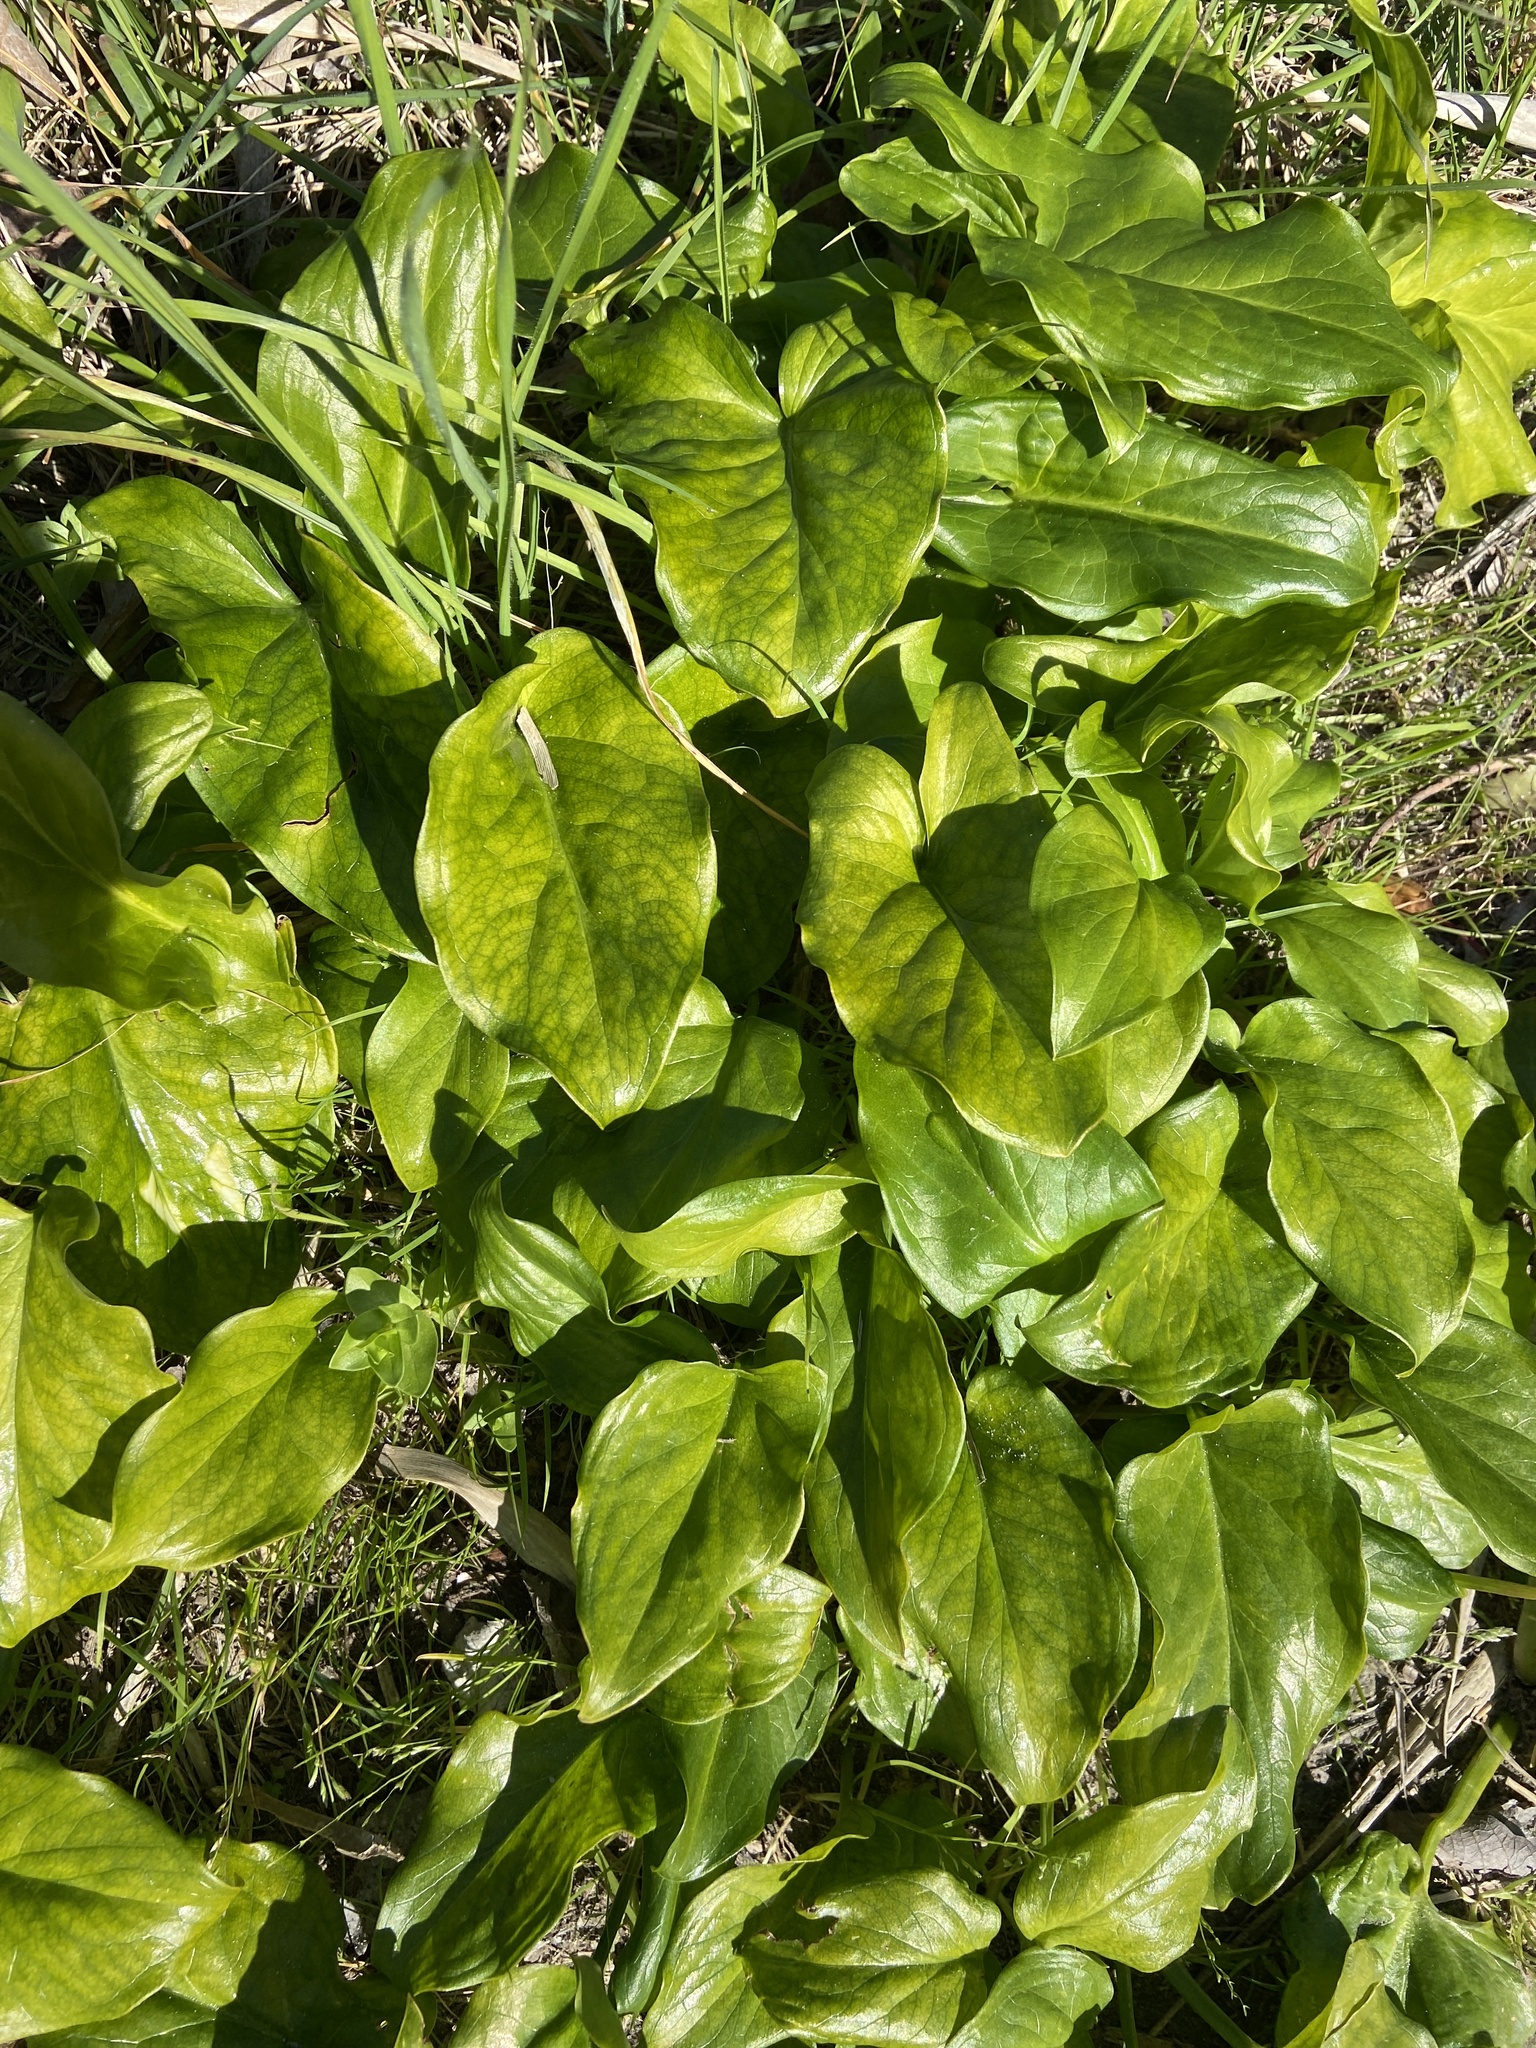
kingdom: Plantae
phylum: Tracheophyta
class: Liliopsida
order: Alismatales
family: Araceae
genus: Arum
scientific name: Arum italicum
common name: Italian lords-and-ladies
